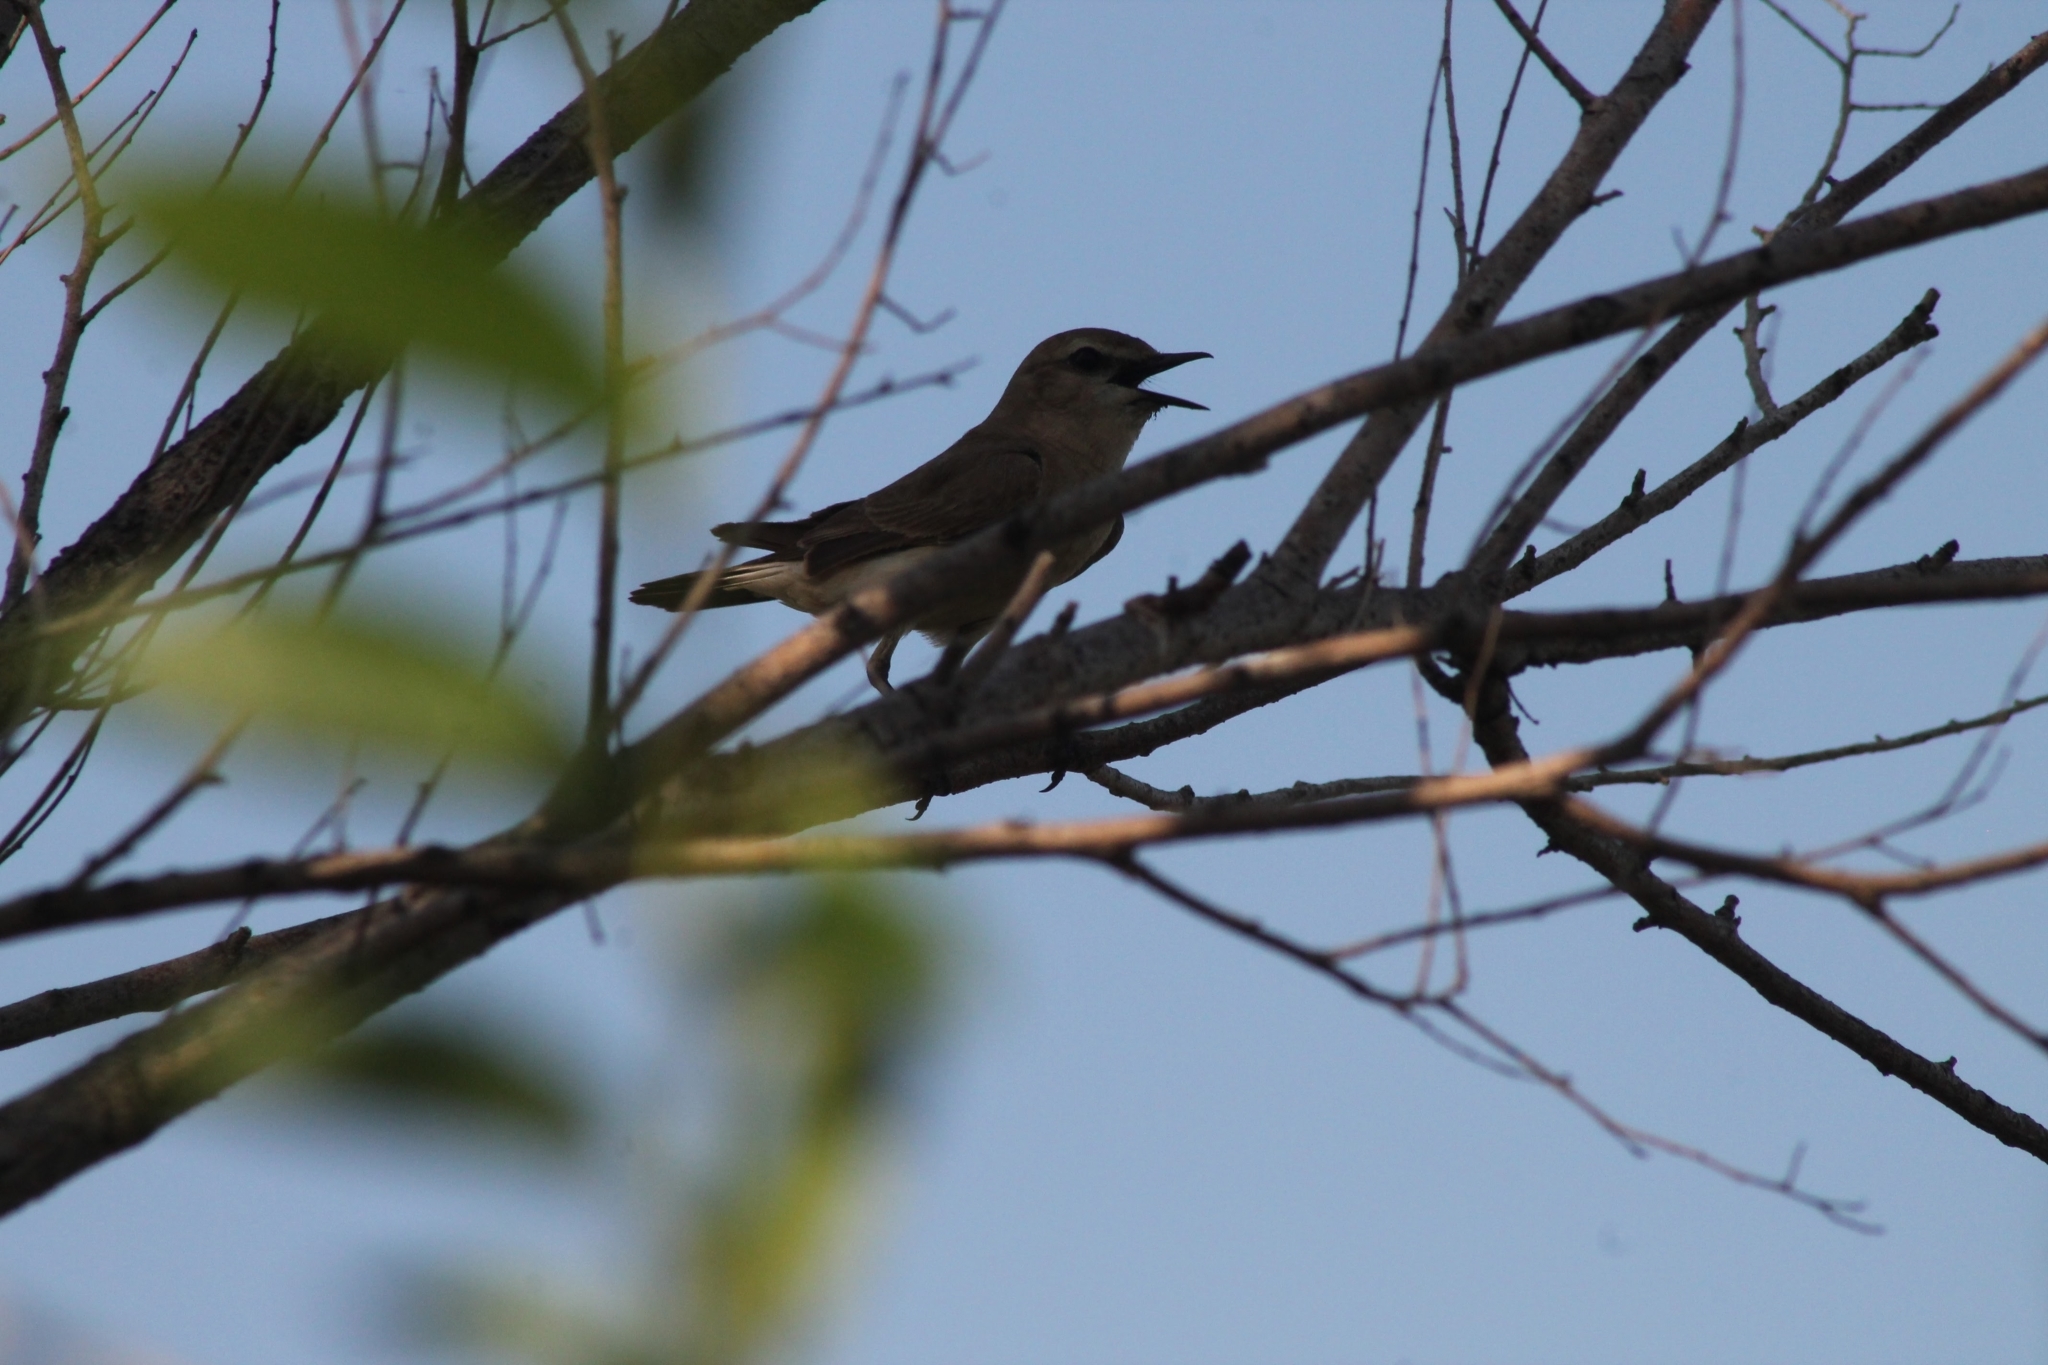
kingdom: Animalia
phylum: Chordata
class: Aves
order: Passeriformes
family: Muscicapidae
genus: Oenanthe
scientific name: Oenanthe isabellina
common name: Isabelline wheatear
